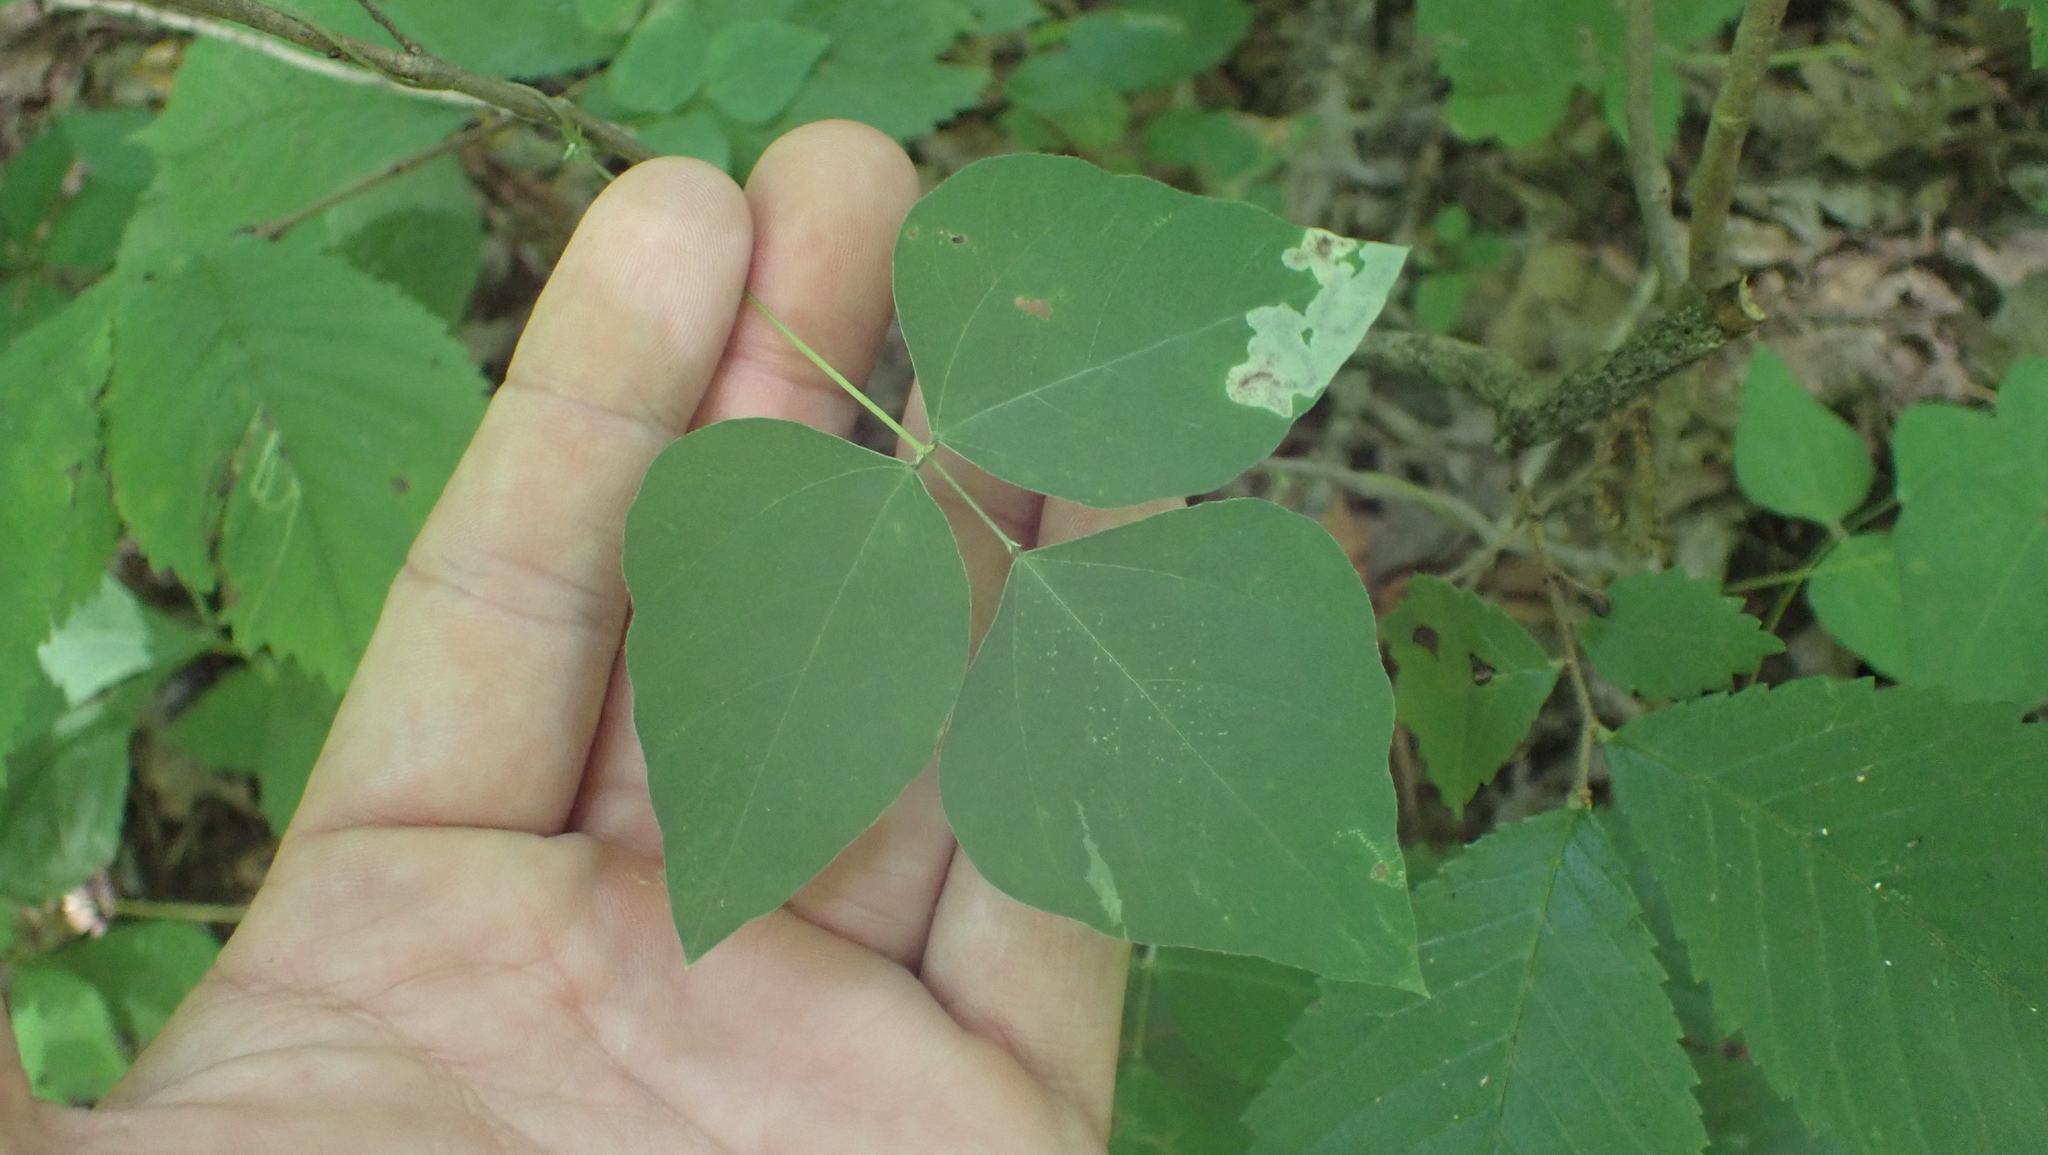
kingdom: Plantae
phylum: Tracheophyta
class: Magnoliopsida
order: Fabales
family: Fabaceae
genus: Amphicarpaea
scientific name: Amphicarpaea bracteata
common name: American hog peanut
